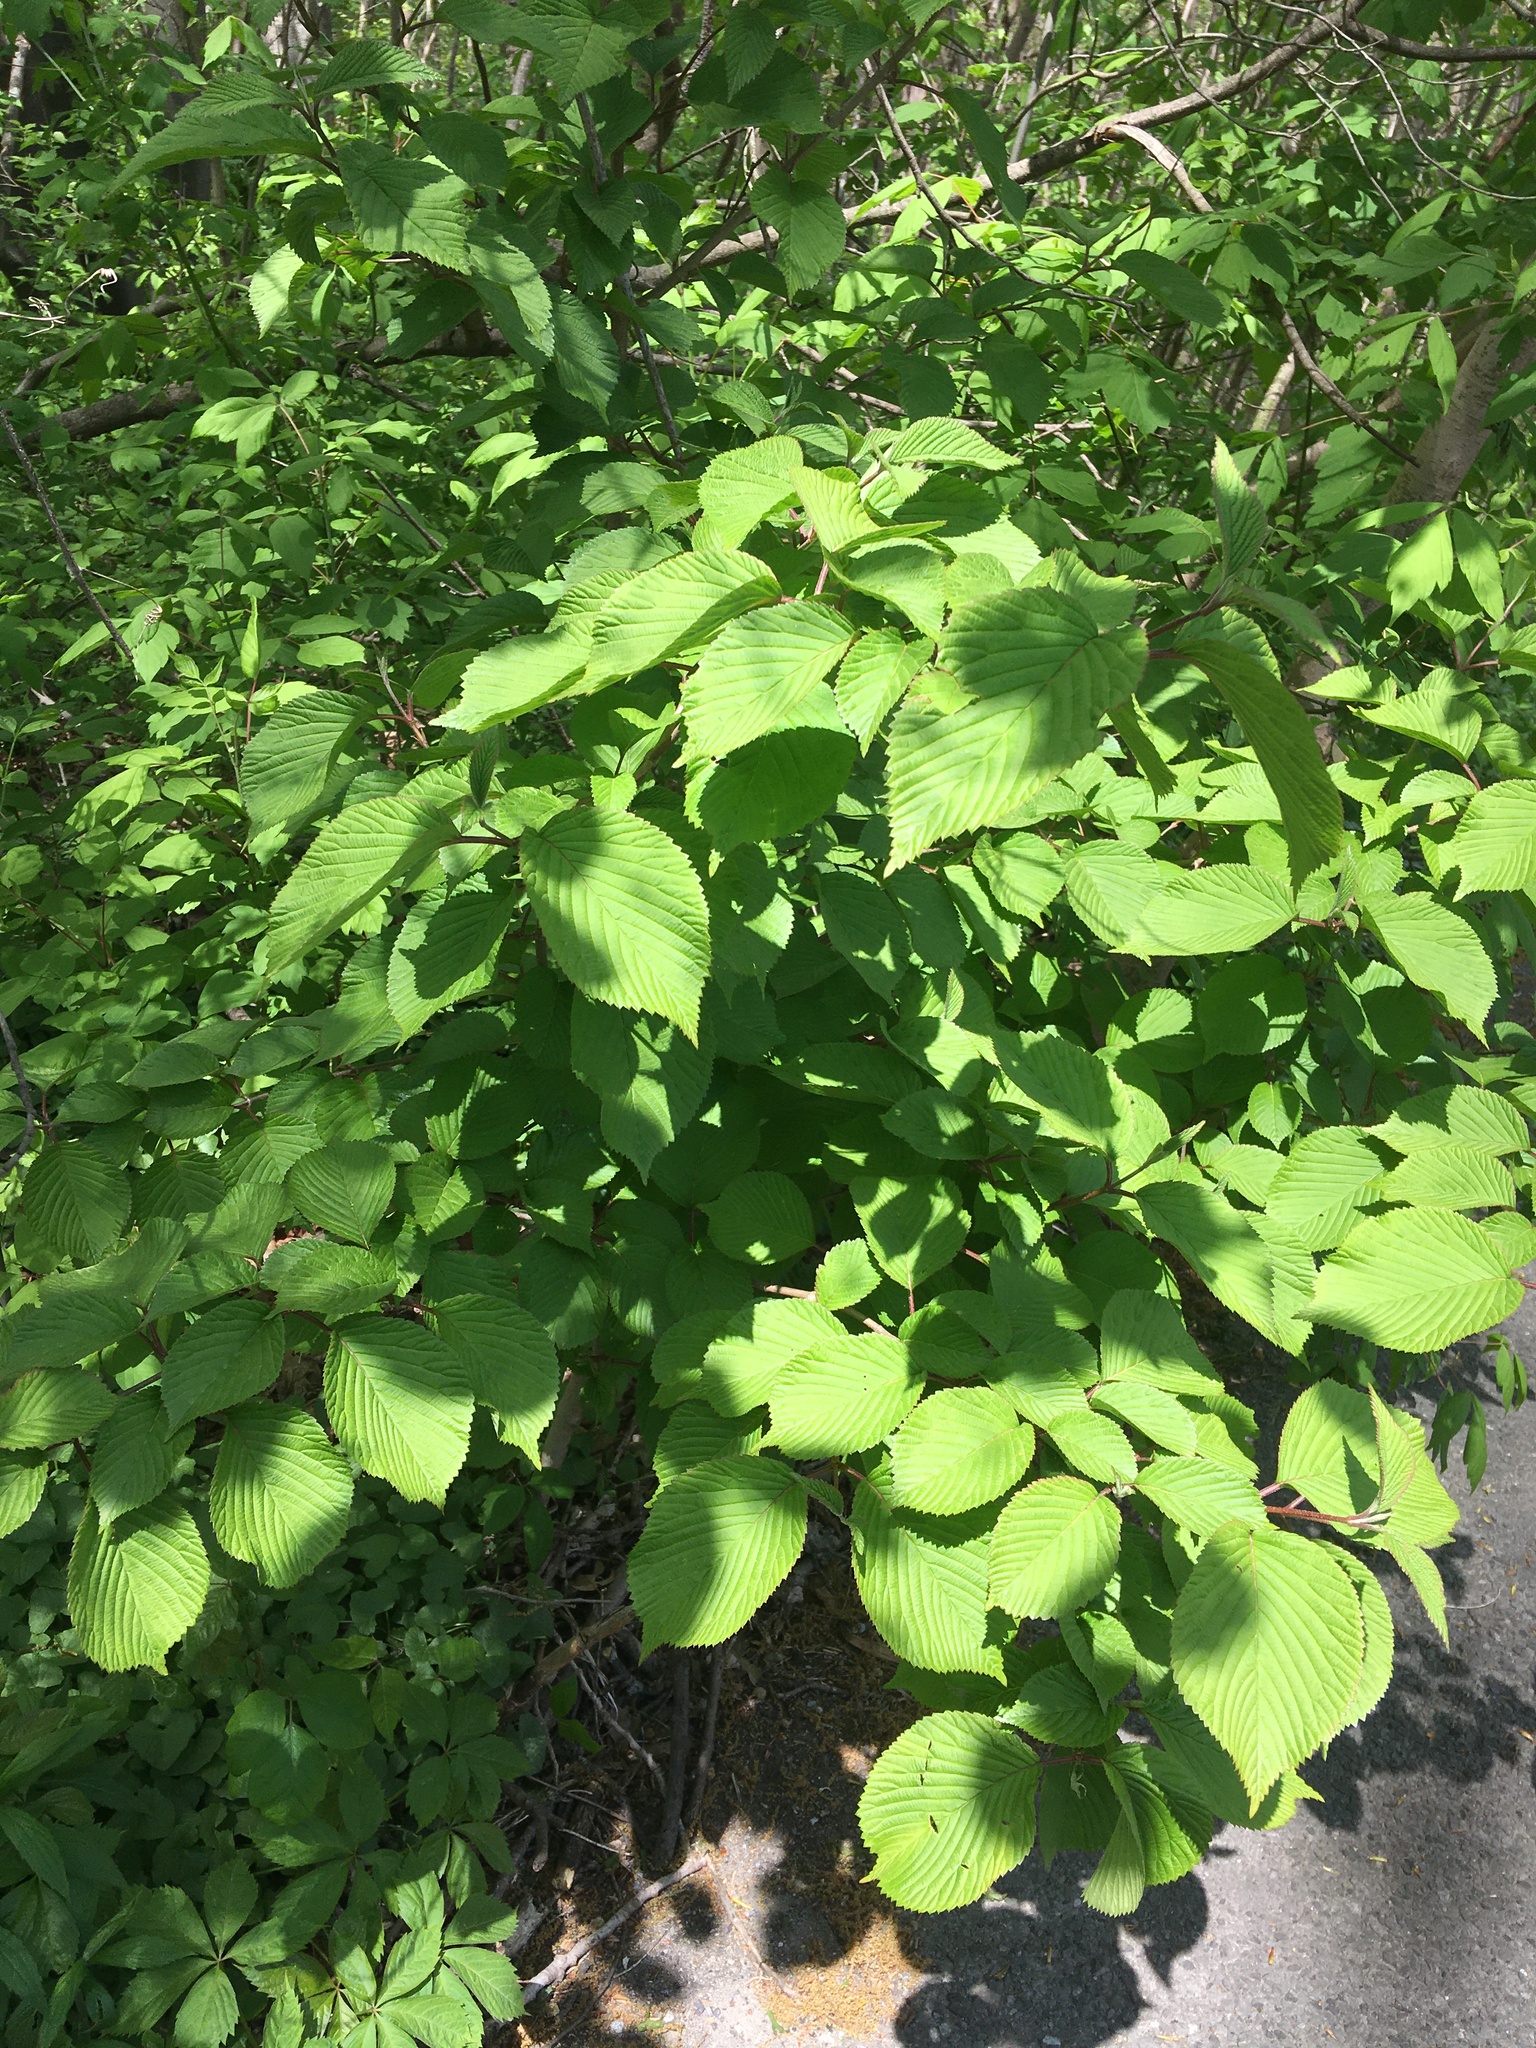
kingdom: Plantae
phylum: Tracheophyta
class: Magnoliopsida
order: Dipsacales
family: Viburnaceae
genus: Viburnum
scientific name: Viburnum plicatum
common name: Japanese snowball
